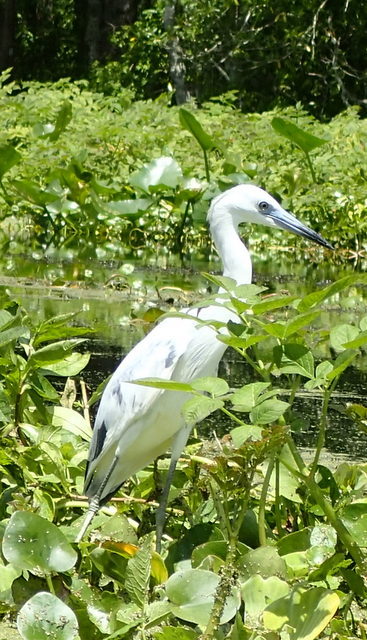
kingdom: Animalia
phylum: Chordata
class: Aves
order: Pelecaniformes
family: Ardeidae
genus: Egretta
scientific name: Egretta caerulea
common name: Little blue heron
